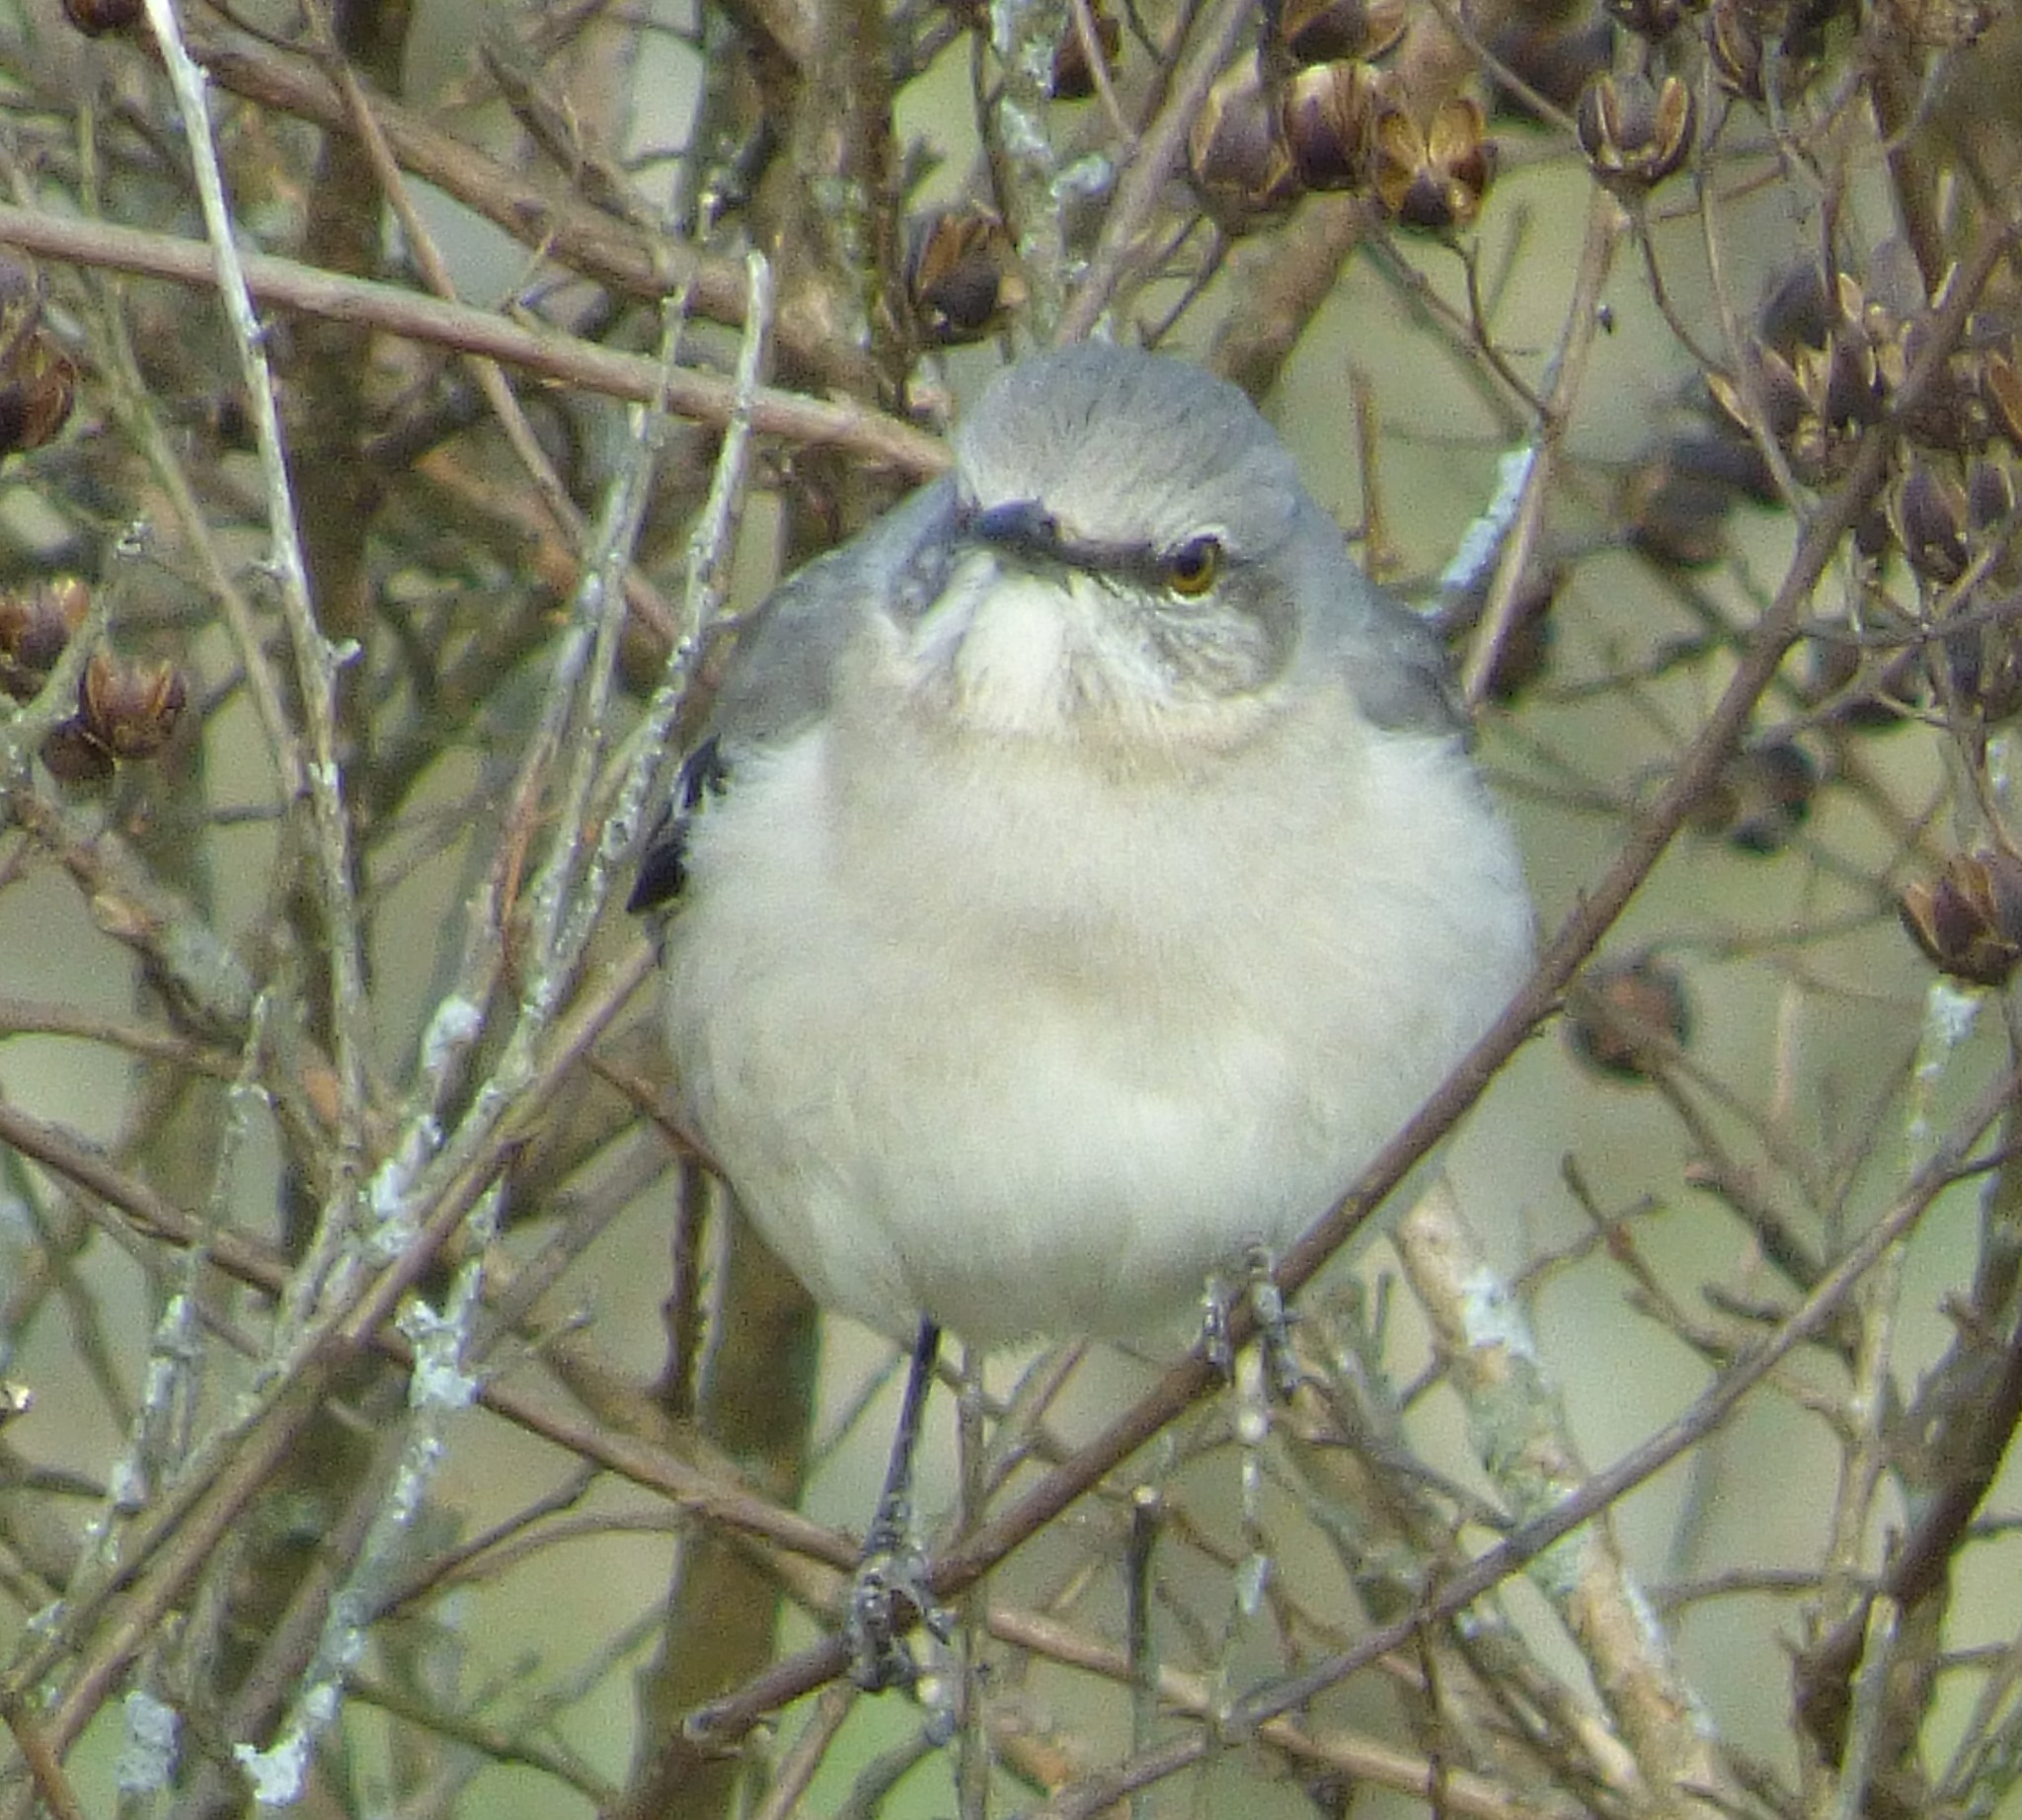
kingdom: Animalia
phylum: Chordata
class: Aves
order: Passeriformes
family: Mimidae
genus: Mimus
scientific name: Mimus polyglottos
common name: Northern mockingbird
